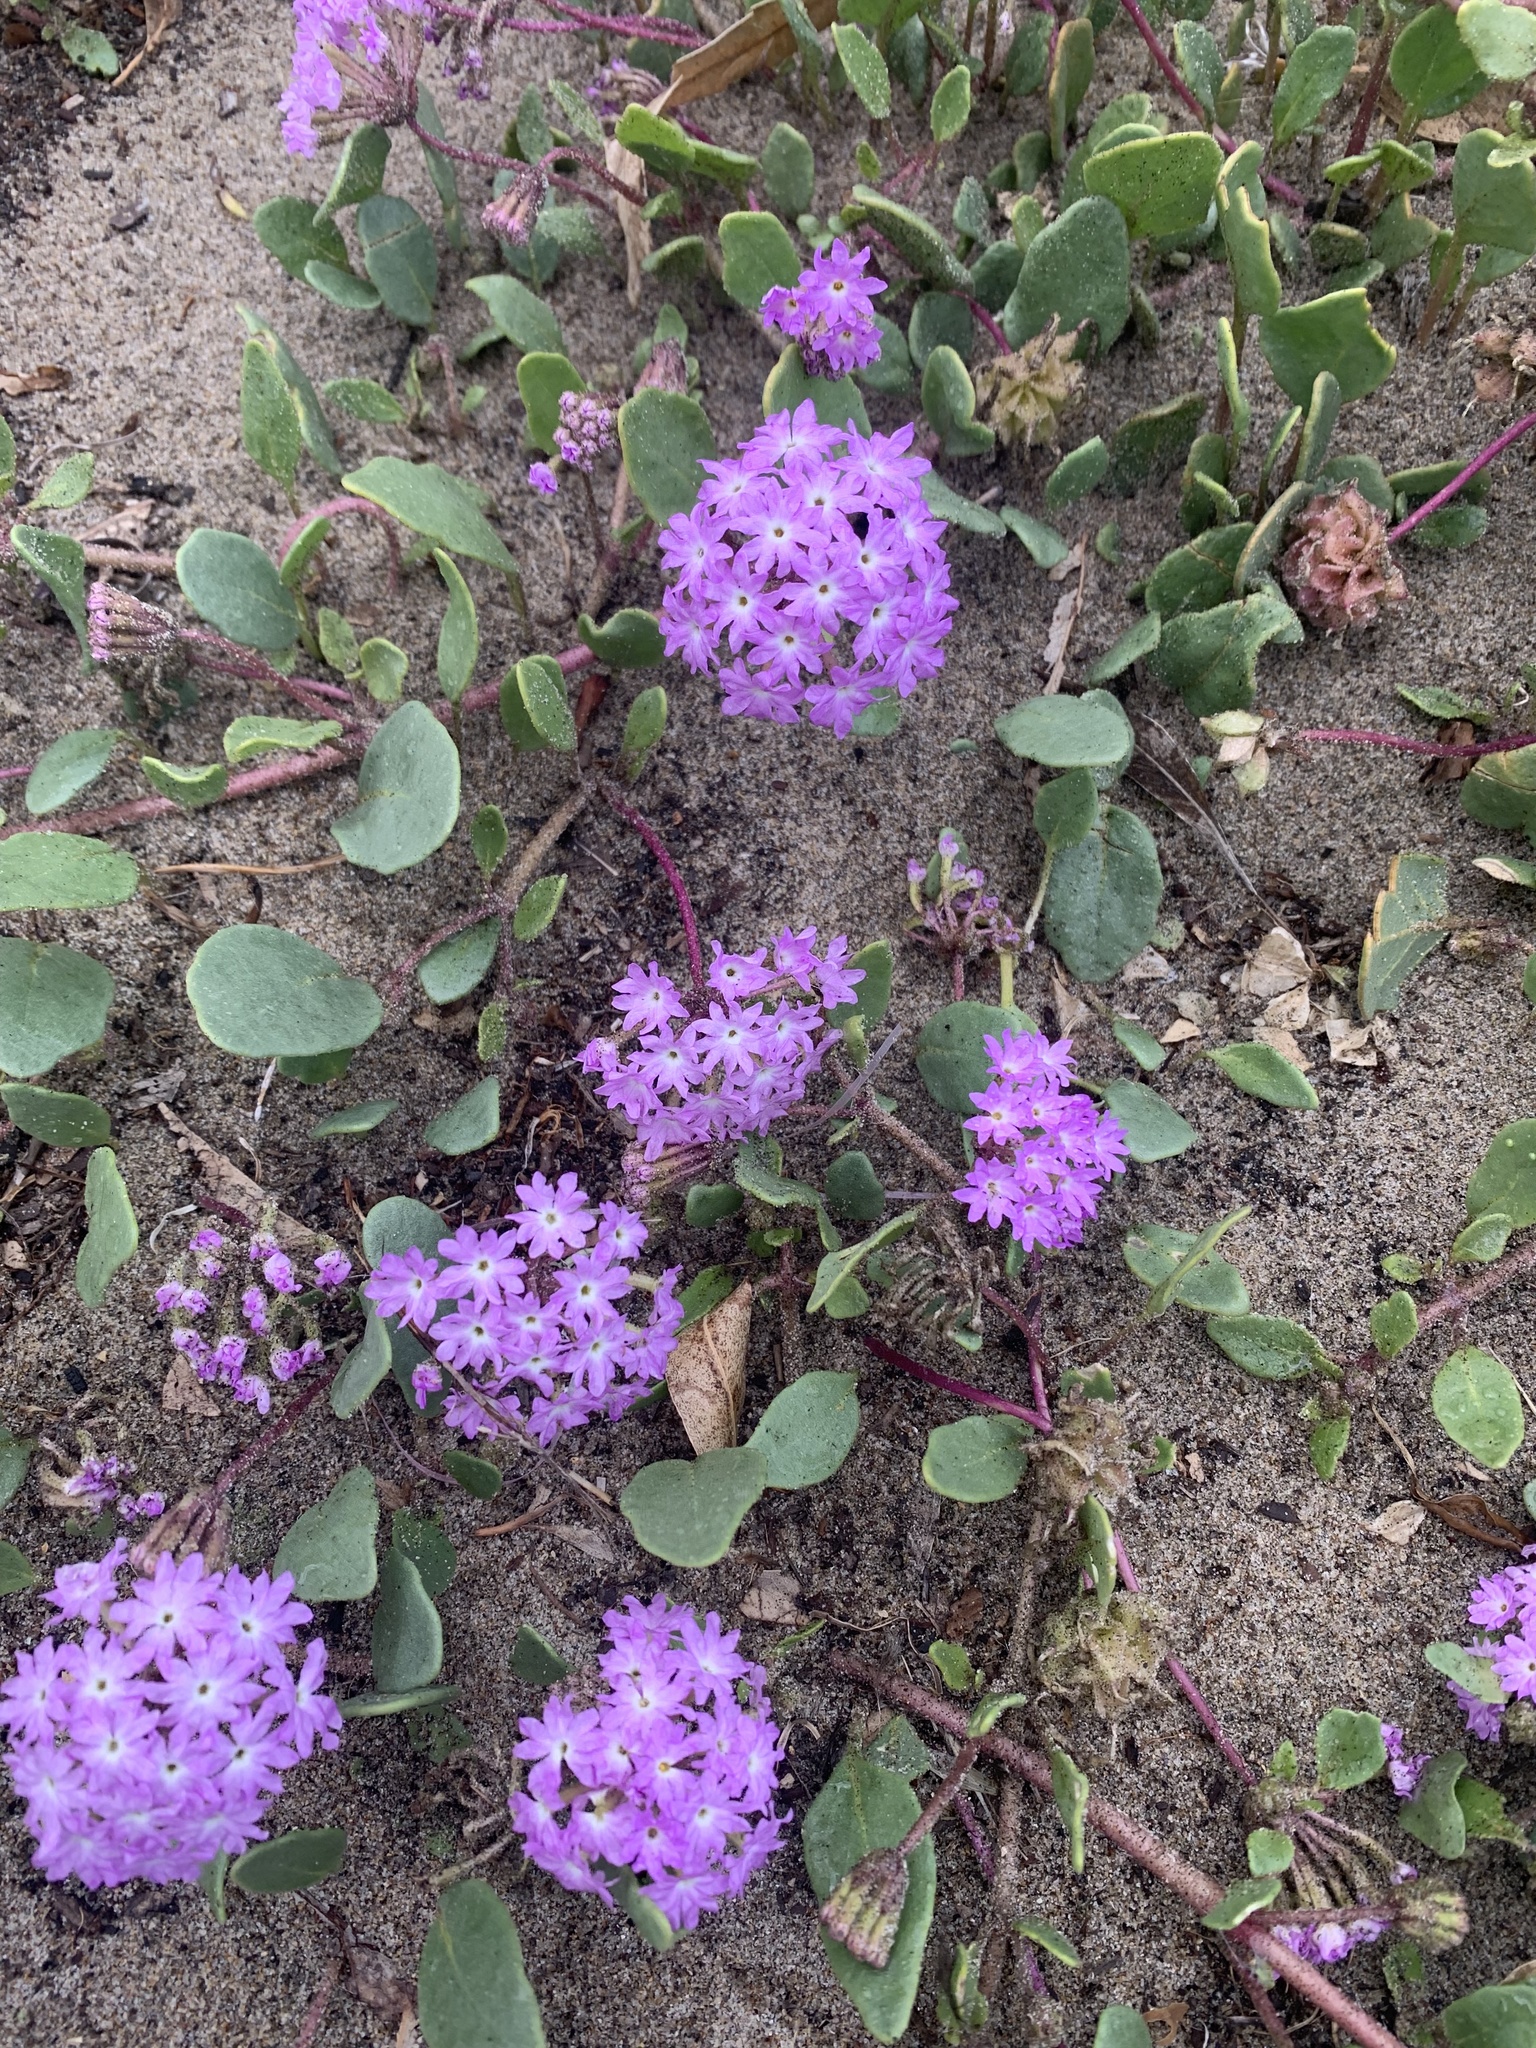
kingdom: Plantae
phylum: Tracheophyta
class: Magnoliopsida
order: Caryophyllales
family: Nyctaginaceae
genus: Abronia
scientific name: Abronia umbellata
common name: Sand-verbena
